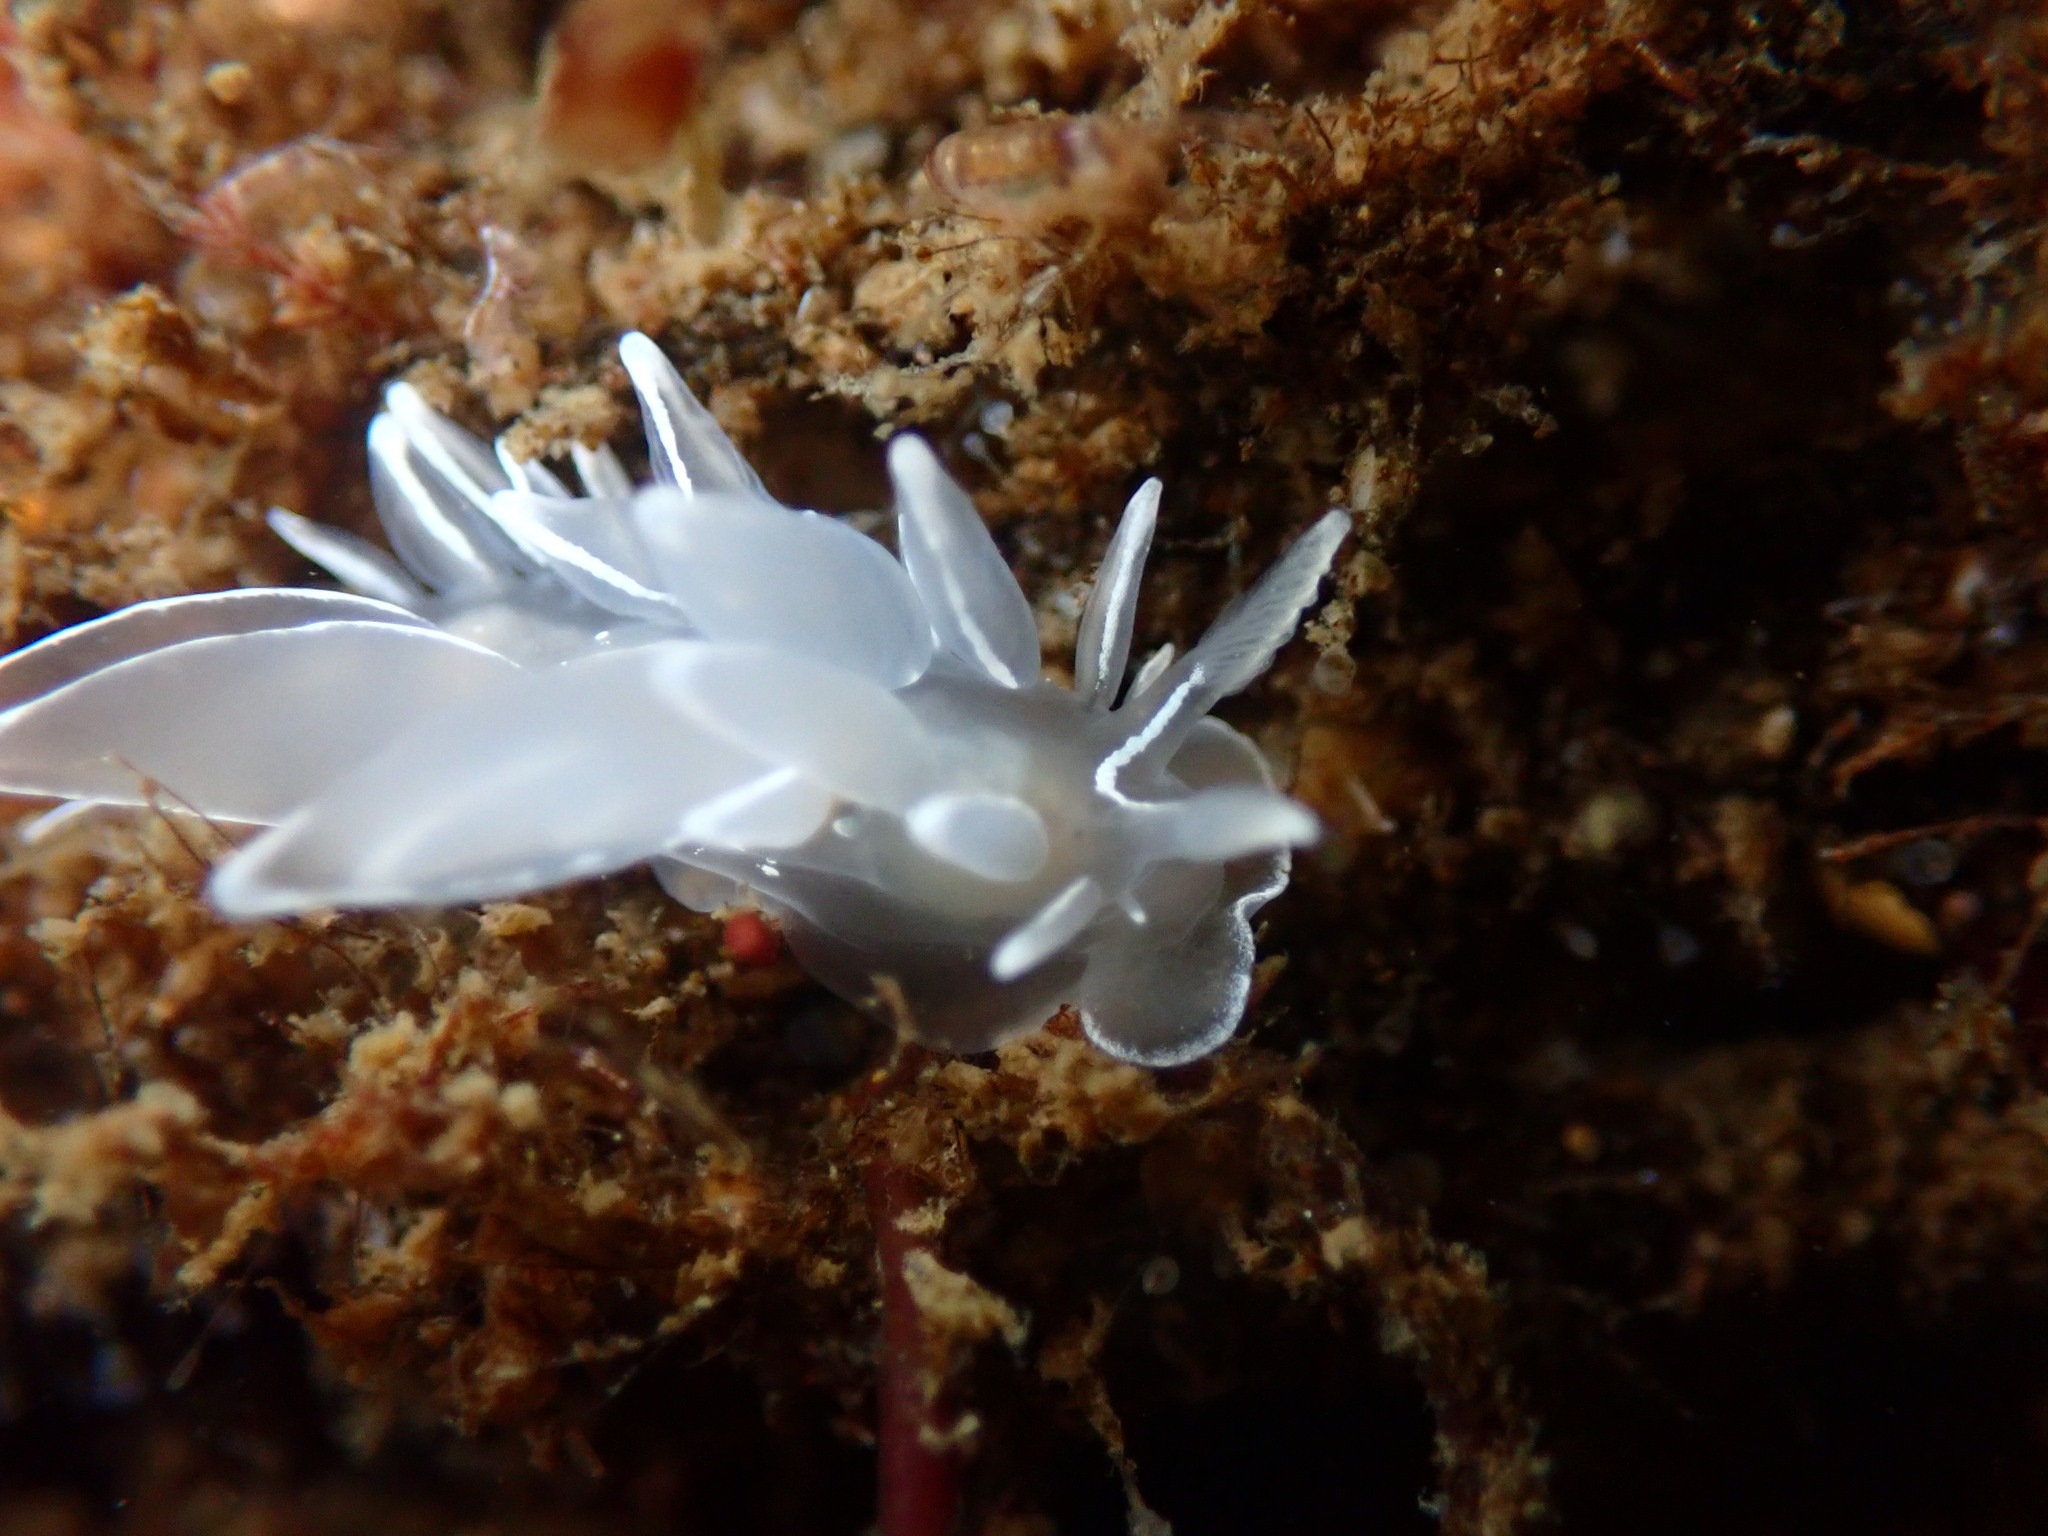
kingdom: Animalia
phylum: Mollusca
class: Gastropoda
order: Nudibranchia
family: Dironidae
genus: Dirona
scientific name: Dirona albolineata
